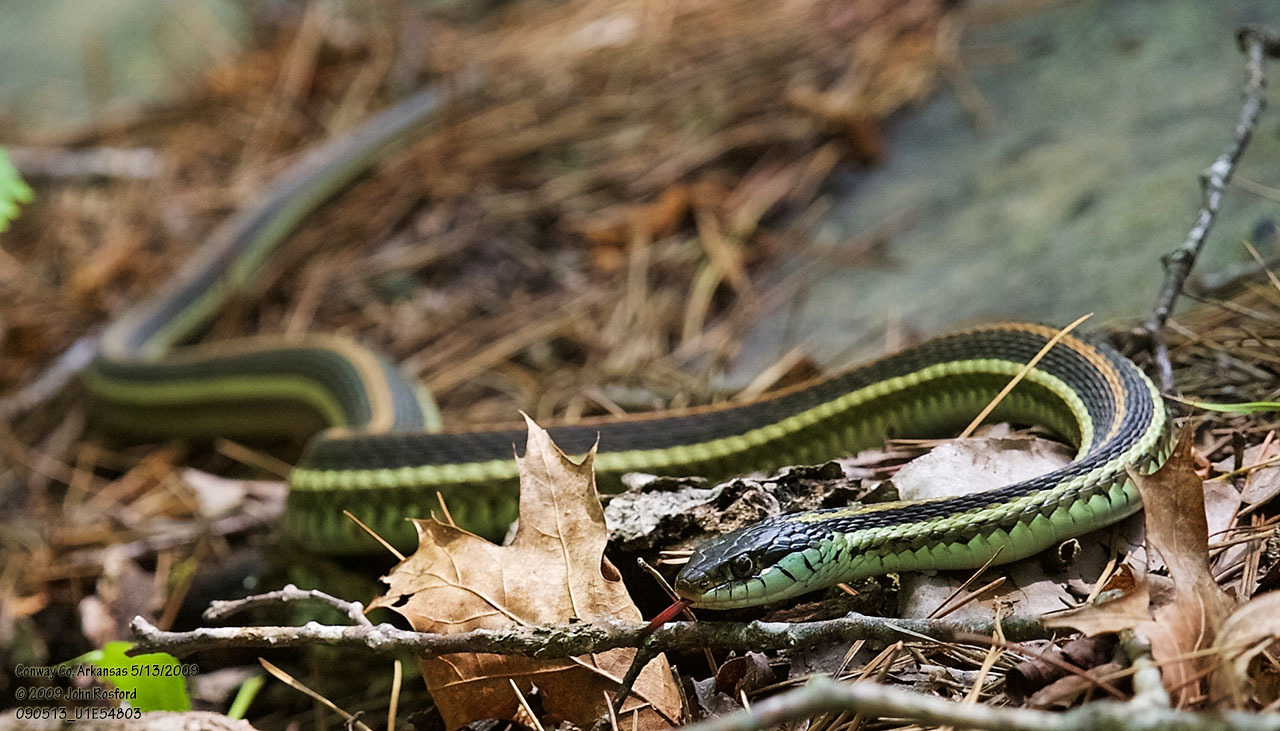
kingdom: Animalia
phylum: Chordata
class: Squamata
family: Colubridae
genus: Thamnophis
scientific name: Thamnophis sirtalis
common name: Common garter snake
